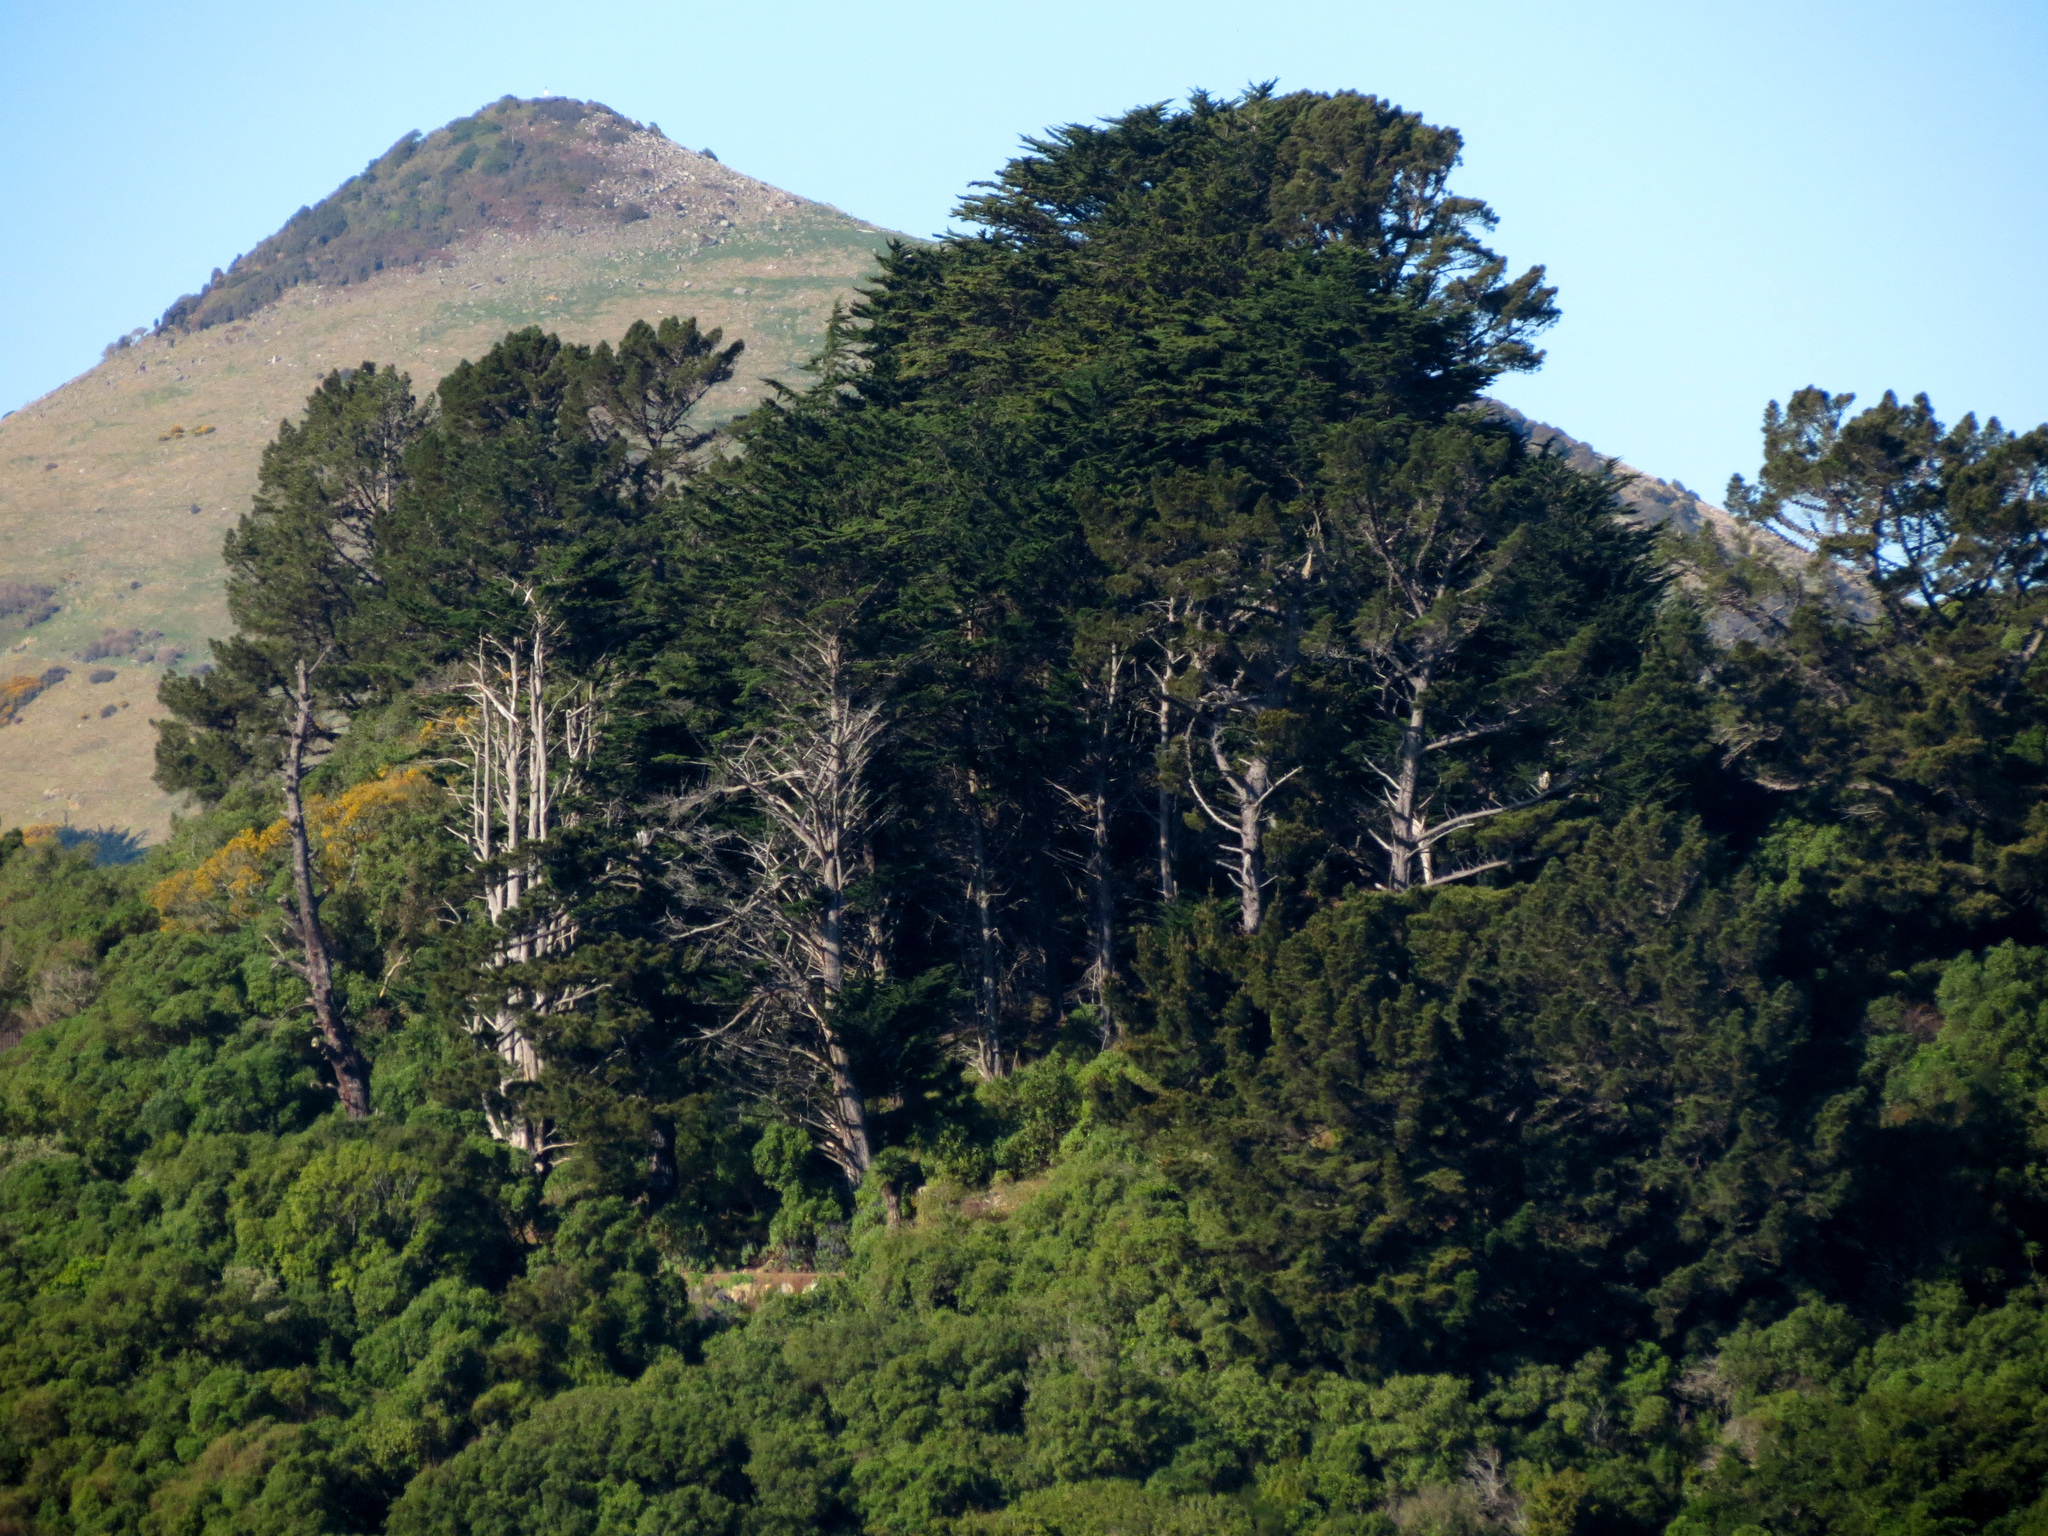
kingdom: Plantae
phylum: Tracheophyta
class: Pinopsida
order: Pinales
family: Pinaceae
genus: Pinus
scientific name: Pinus radiata
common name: Monterey pine
